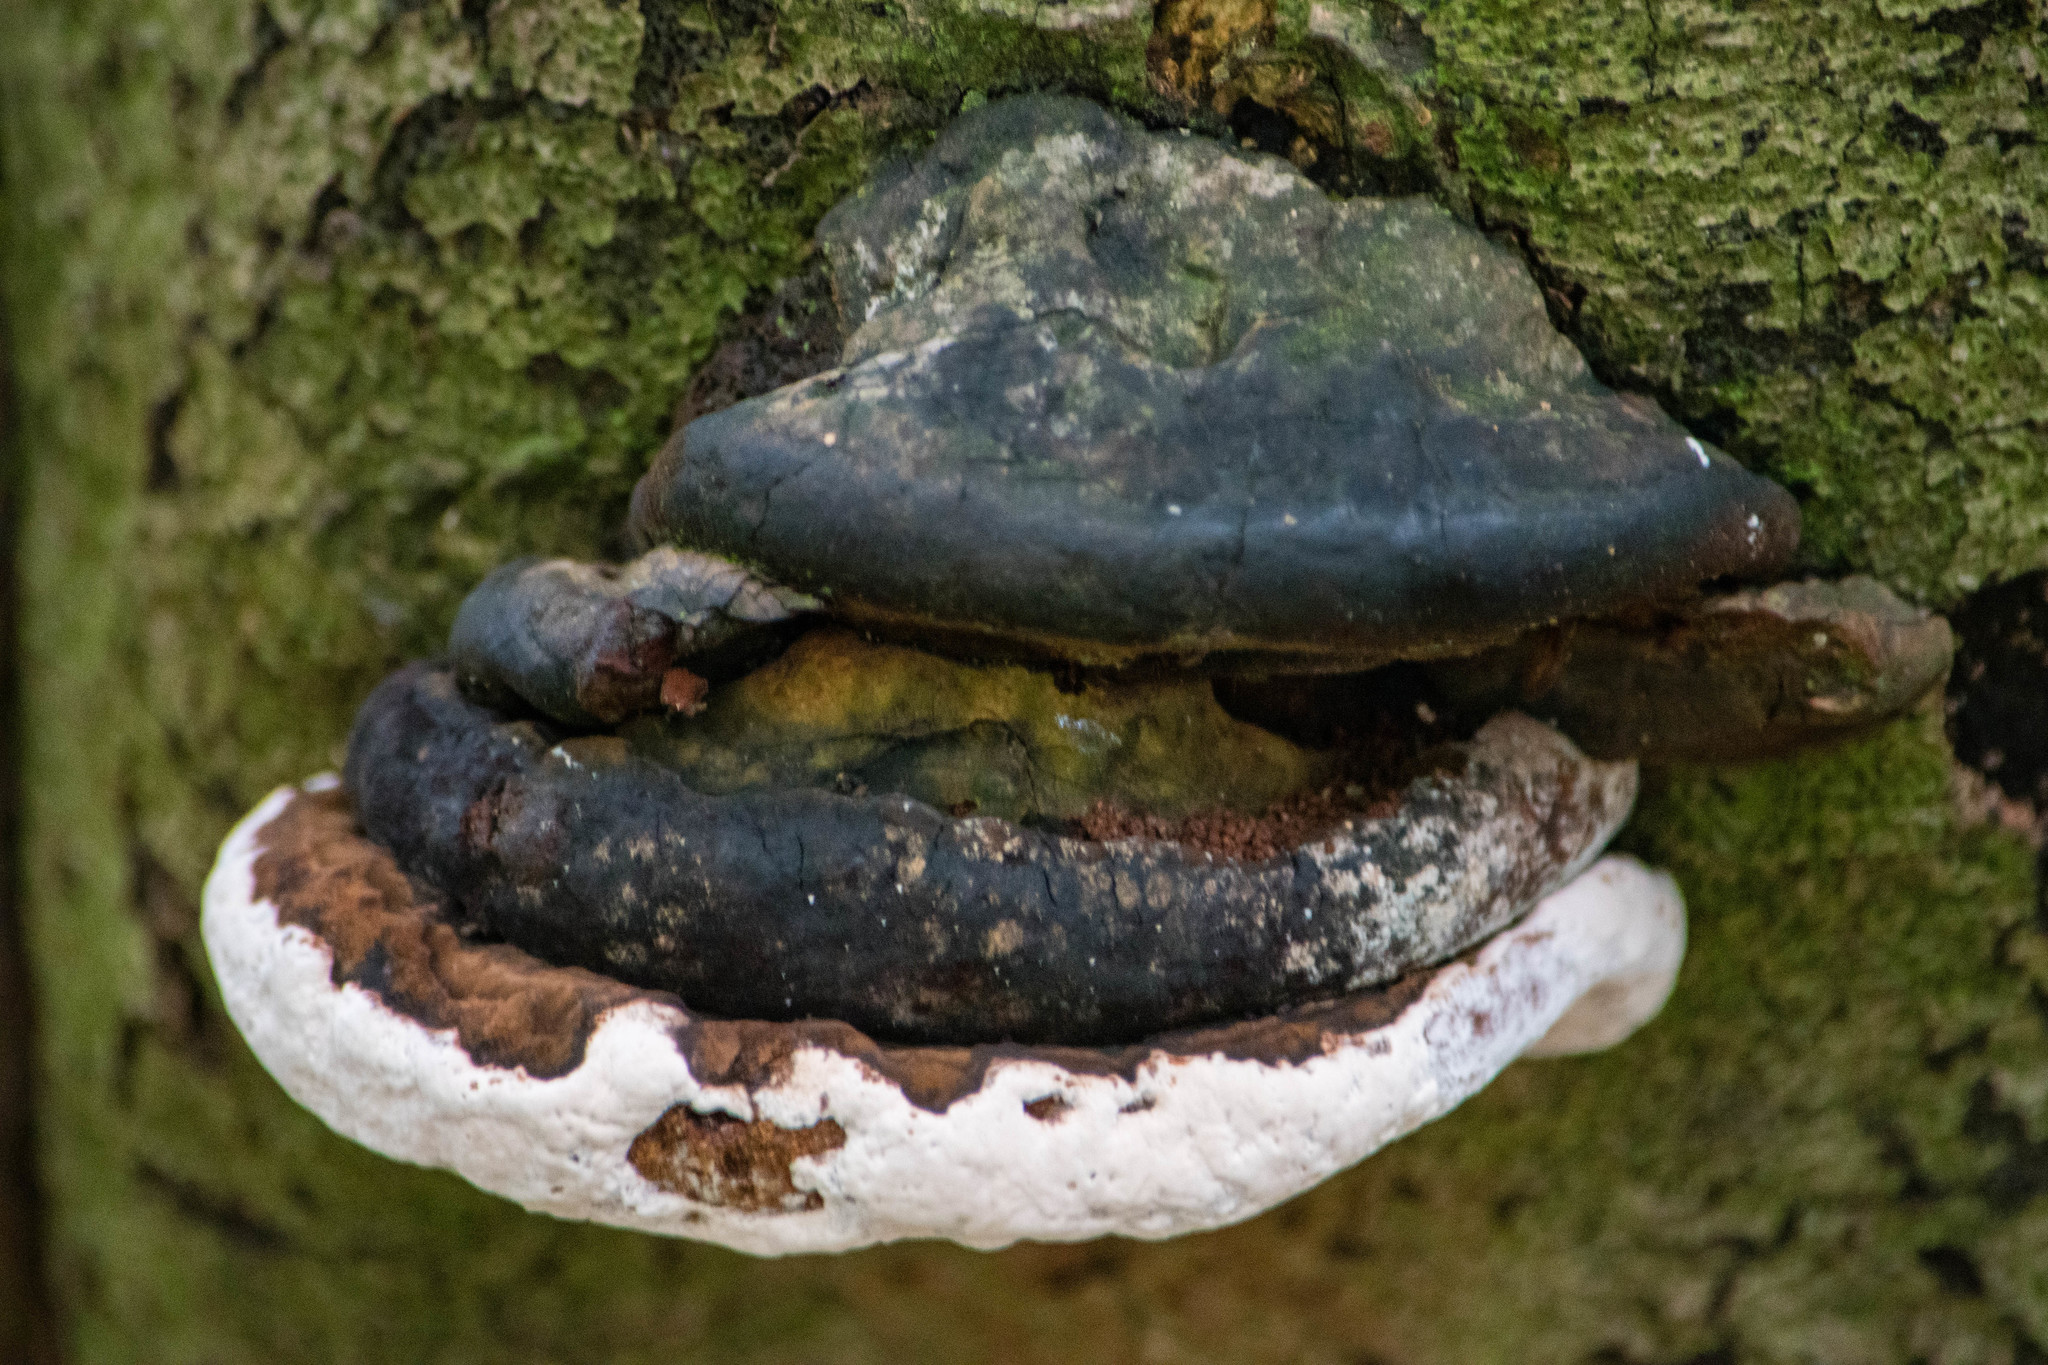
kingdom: Fungi
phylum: Basidiomycota
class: Agaricomycetes
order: Polyporales
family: Fomitopsidaceae
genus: Fomitopsis
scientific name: Fomitopsis pinicola
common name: Red-belted bracket
